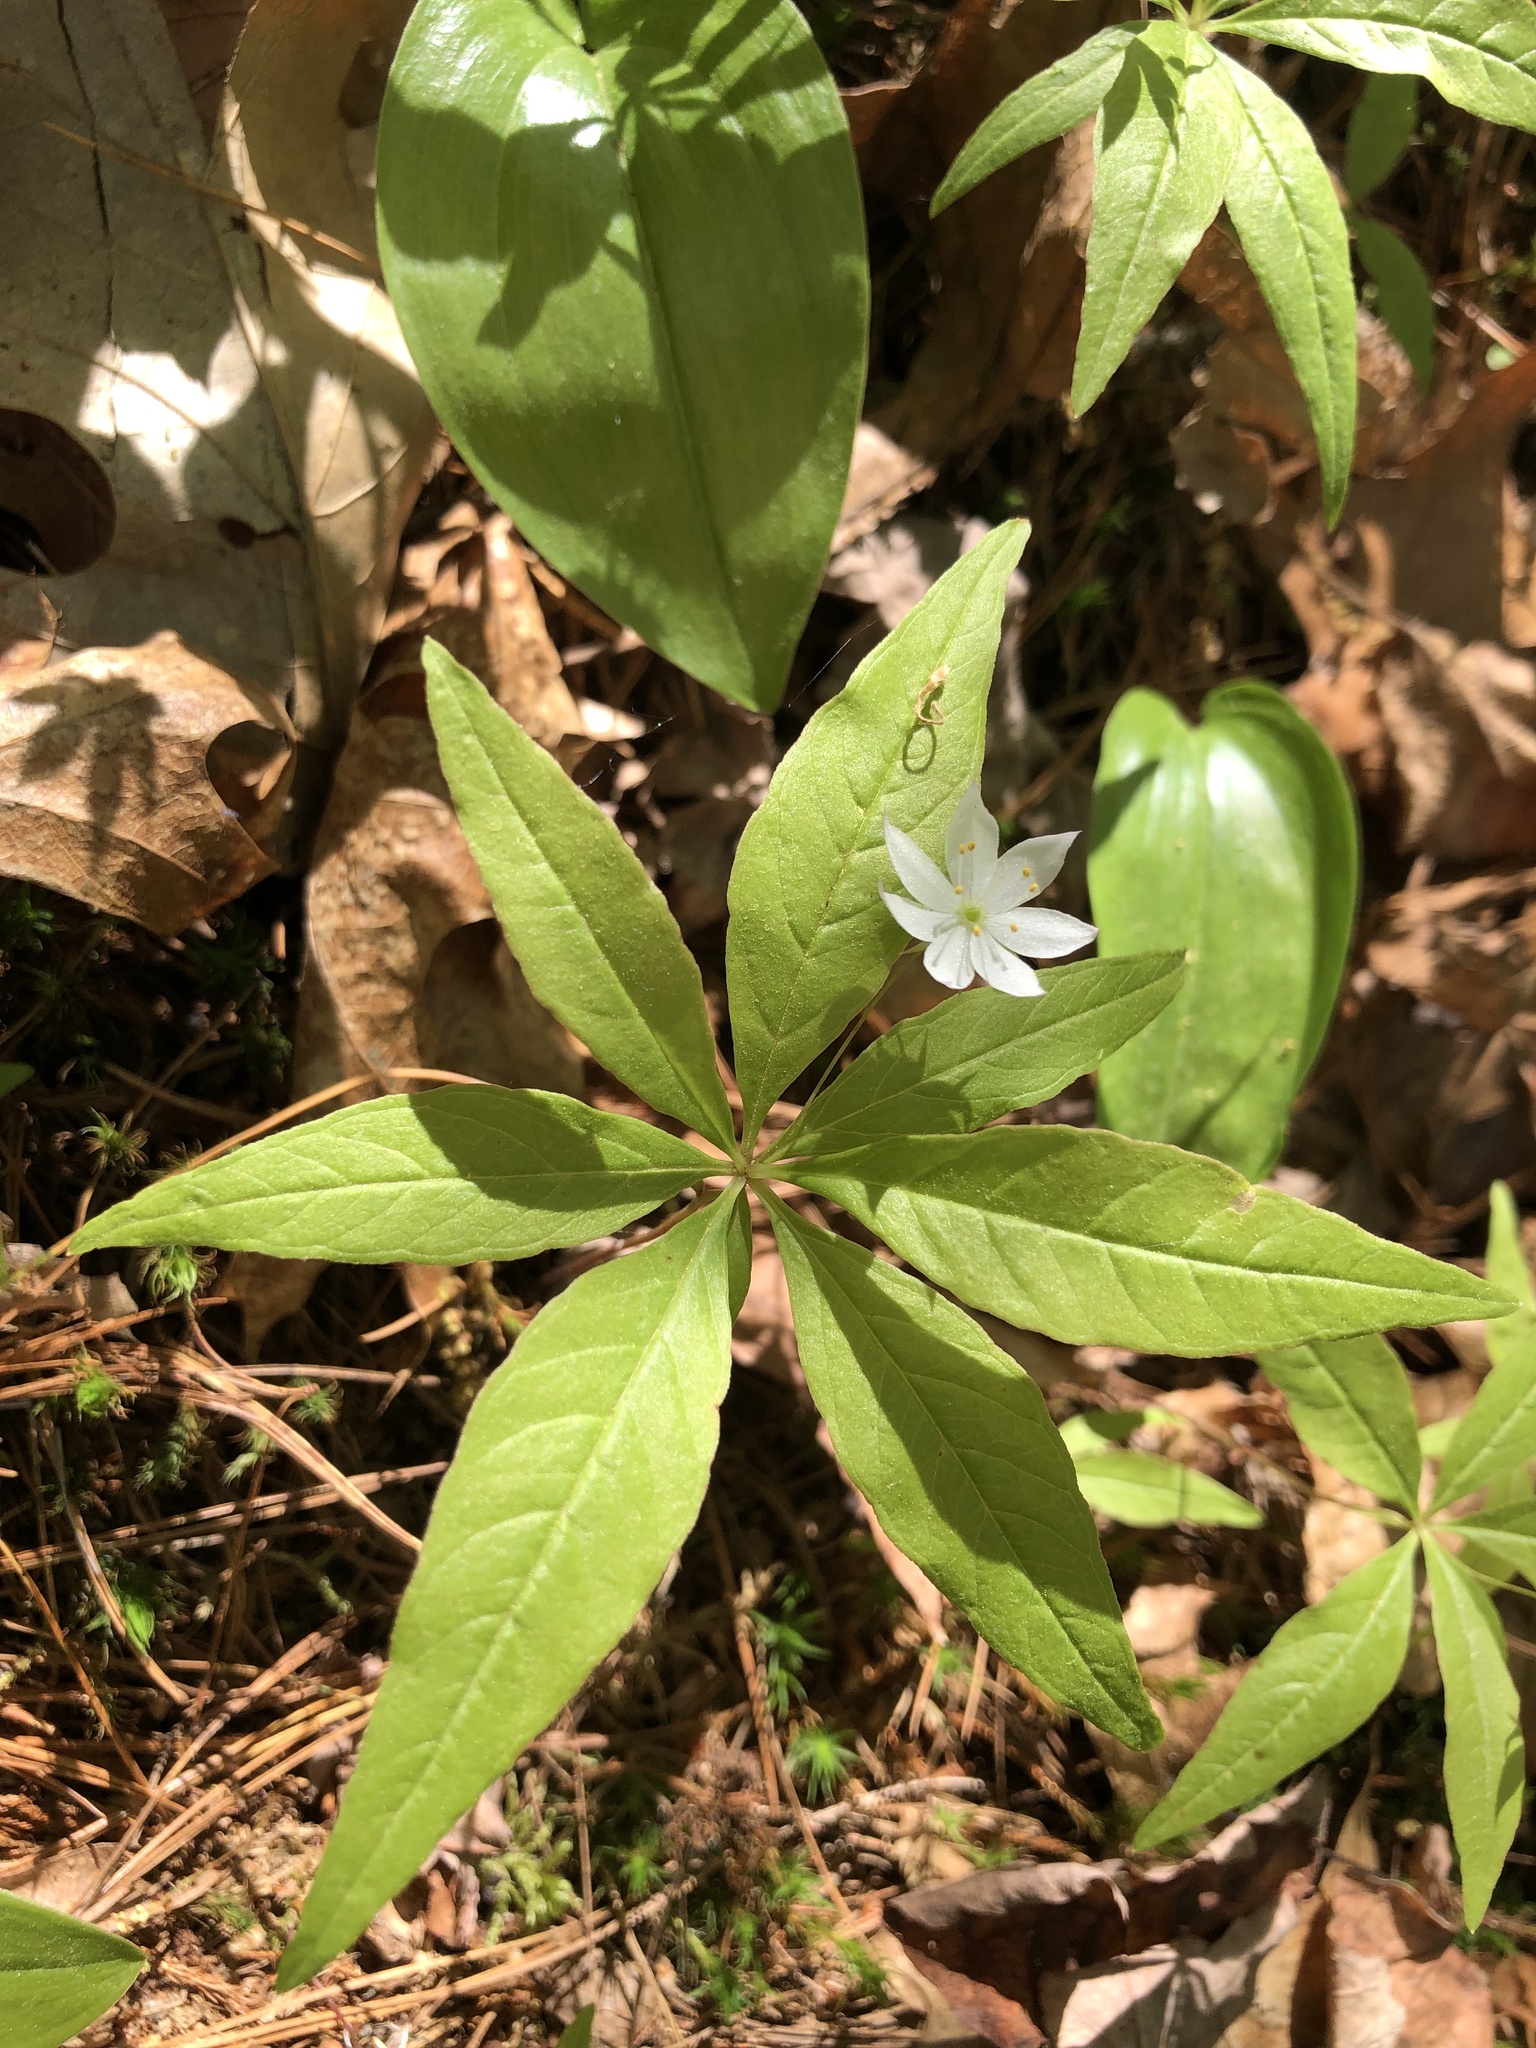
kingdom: Plantae
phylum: Tracheophyta
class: Magnoliopsida
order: Ericales
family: Primulaceae
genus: Lysimachia
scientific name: Lysimachia borealis
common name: American starflower
